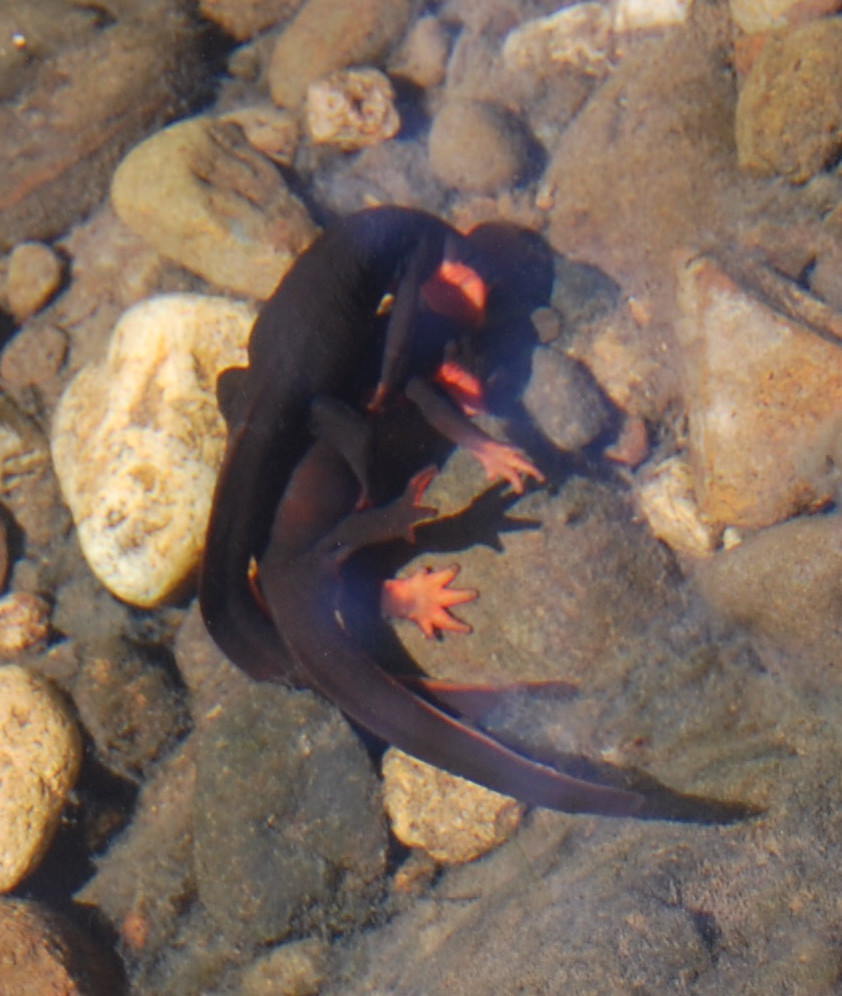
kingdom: Animalia
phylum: Chordata
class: Amphibia
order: Caudata
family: Salamandridae
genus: Taricha
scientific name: Taricha rivularis
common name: Red-bellied newt
